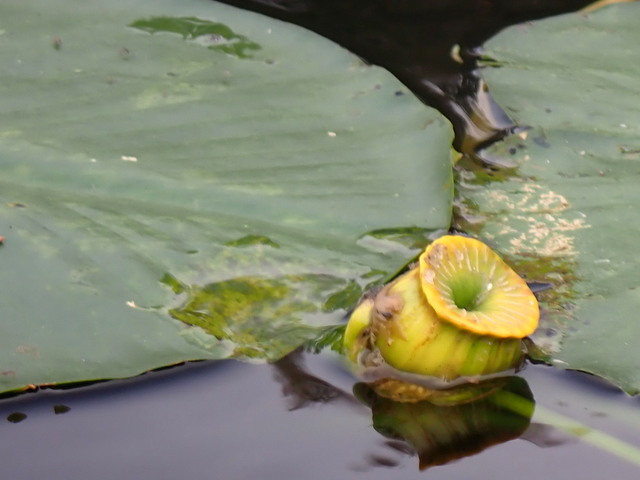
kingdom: Plantae
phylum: Tracheophyta
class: Magnoliopsida
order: Nymphaeales
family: Nymphaeaceae
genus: Nuphar
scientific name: Nuphar advena
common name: Spatter-dock
